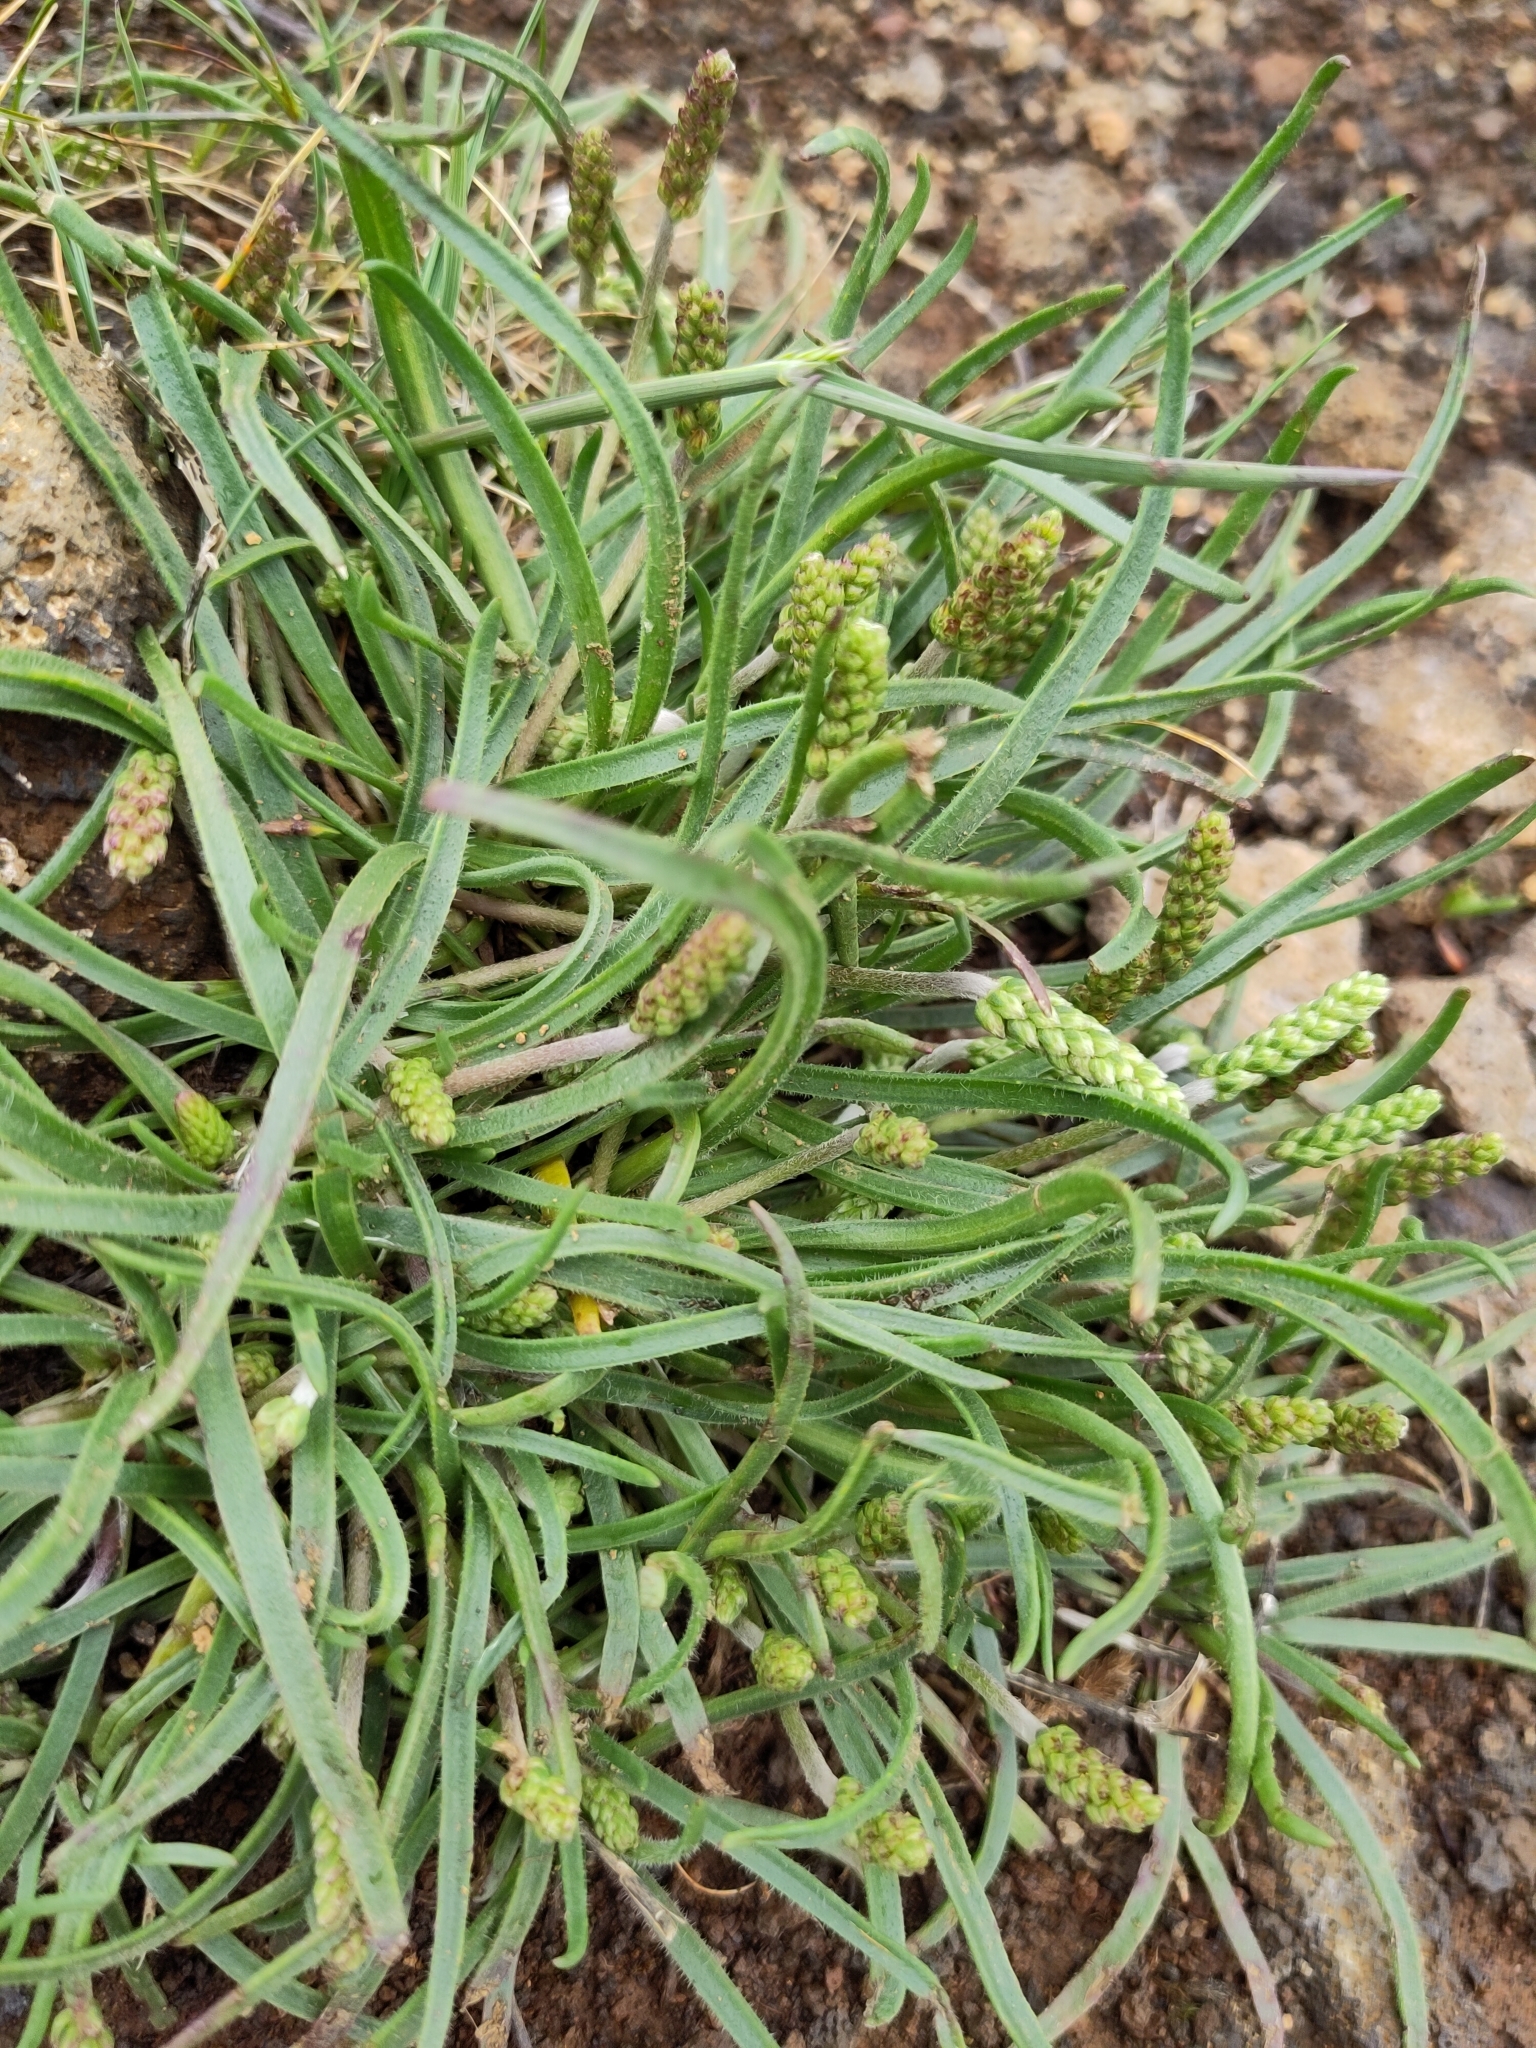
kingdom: Plantae
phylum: Tracheophyta
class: Magnoliopsida
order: Lamiales
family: Plantaginaceae
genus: Plantago
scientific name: Plantago maritima
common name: Sea plantain
